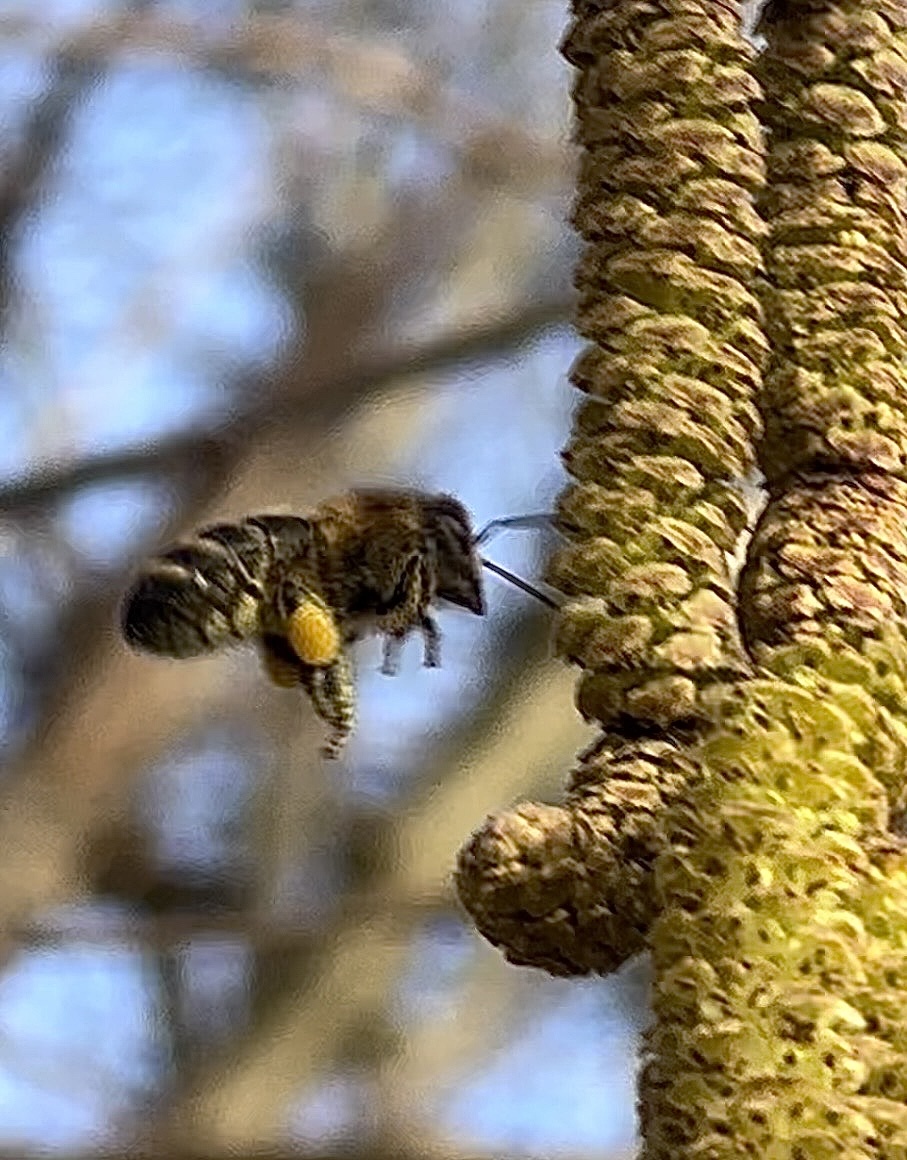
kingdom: Animalia
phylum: Arthropoda
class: Insecta
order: Hymenoptera
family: Apidae
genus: Apis
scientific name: Apis mellifera
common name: Honey bee
